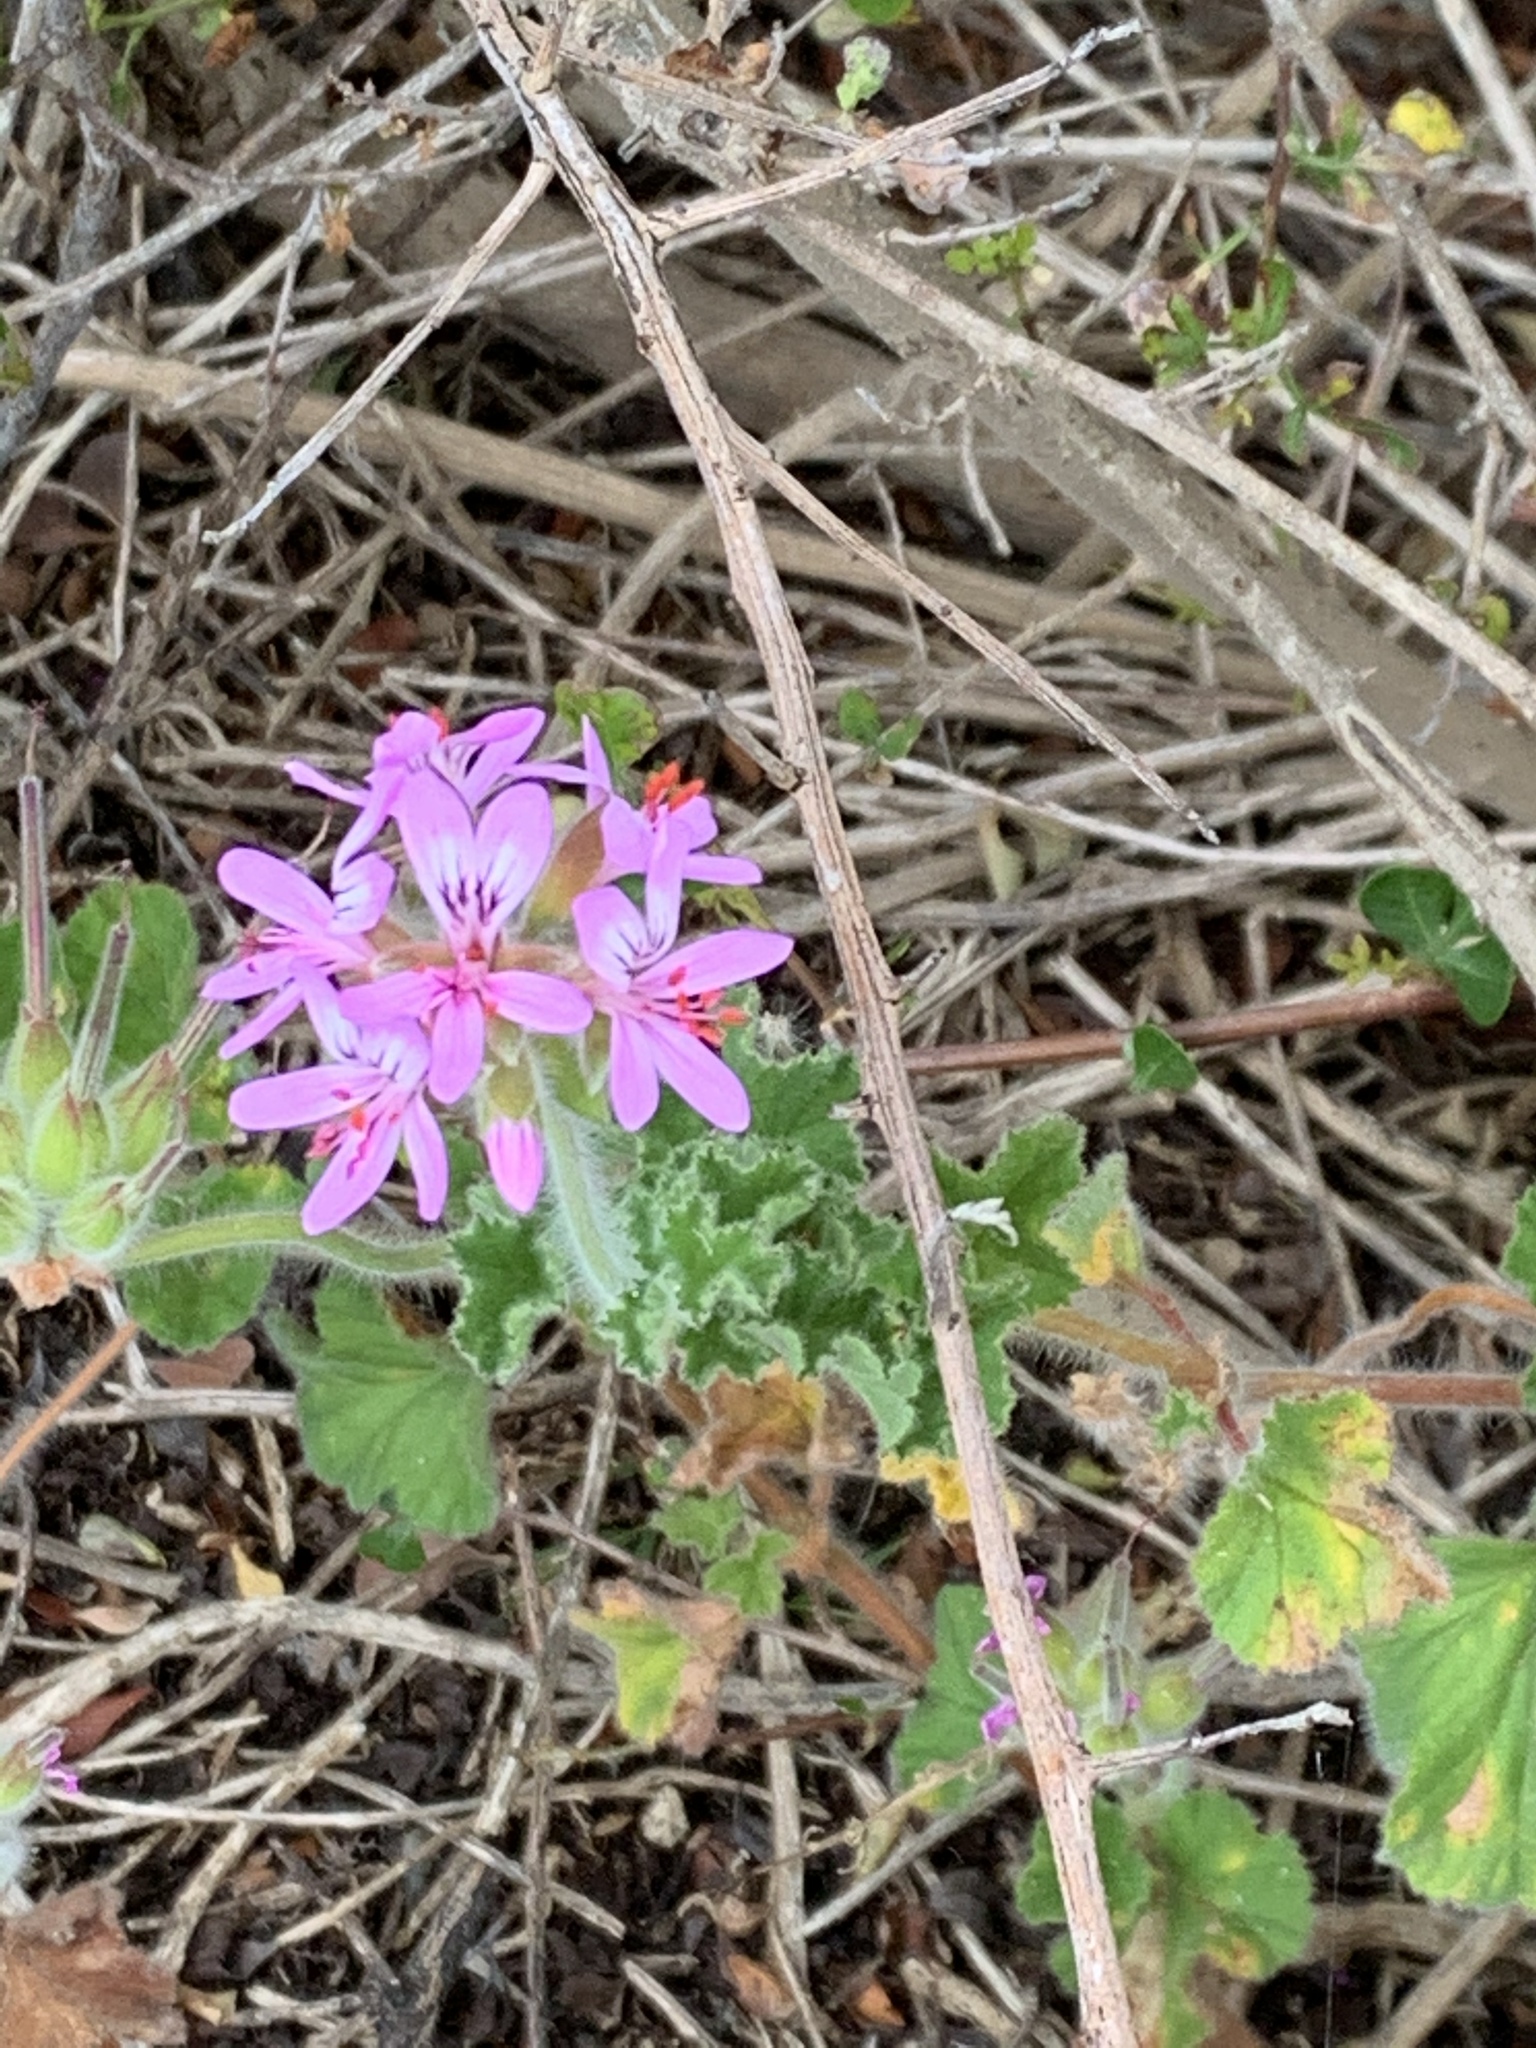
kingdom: Plantae
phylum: Tracheophyta
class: Magnoliopsida
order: Geraniales
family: Geraniaceae
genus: Pelargonium
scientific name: Pelargonium capitatum
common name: Rose scented geranium
